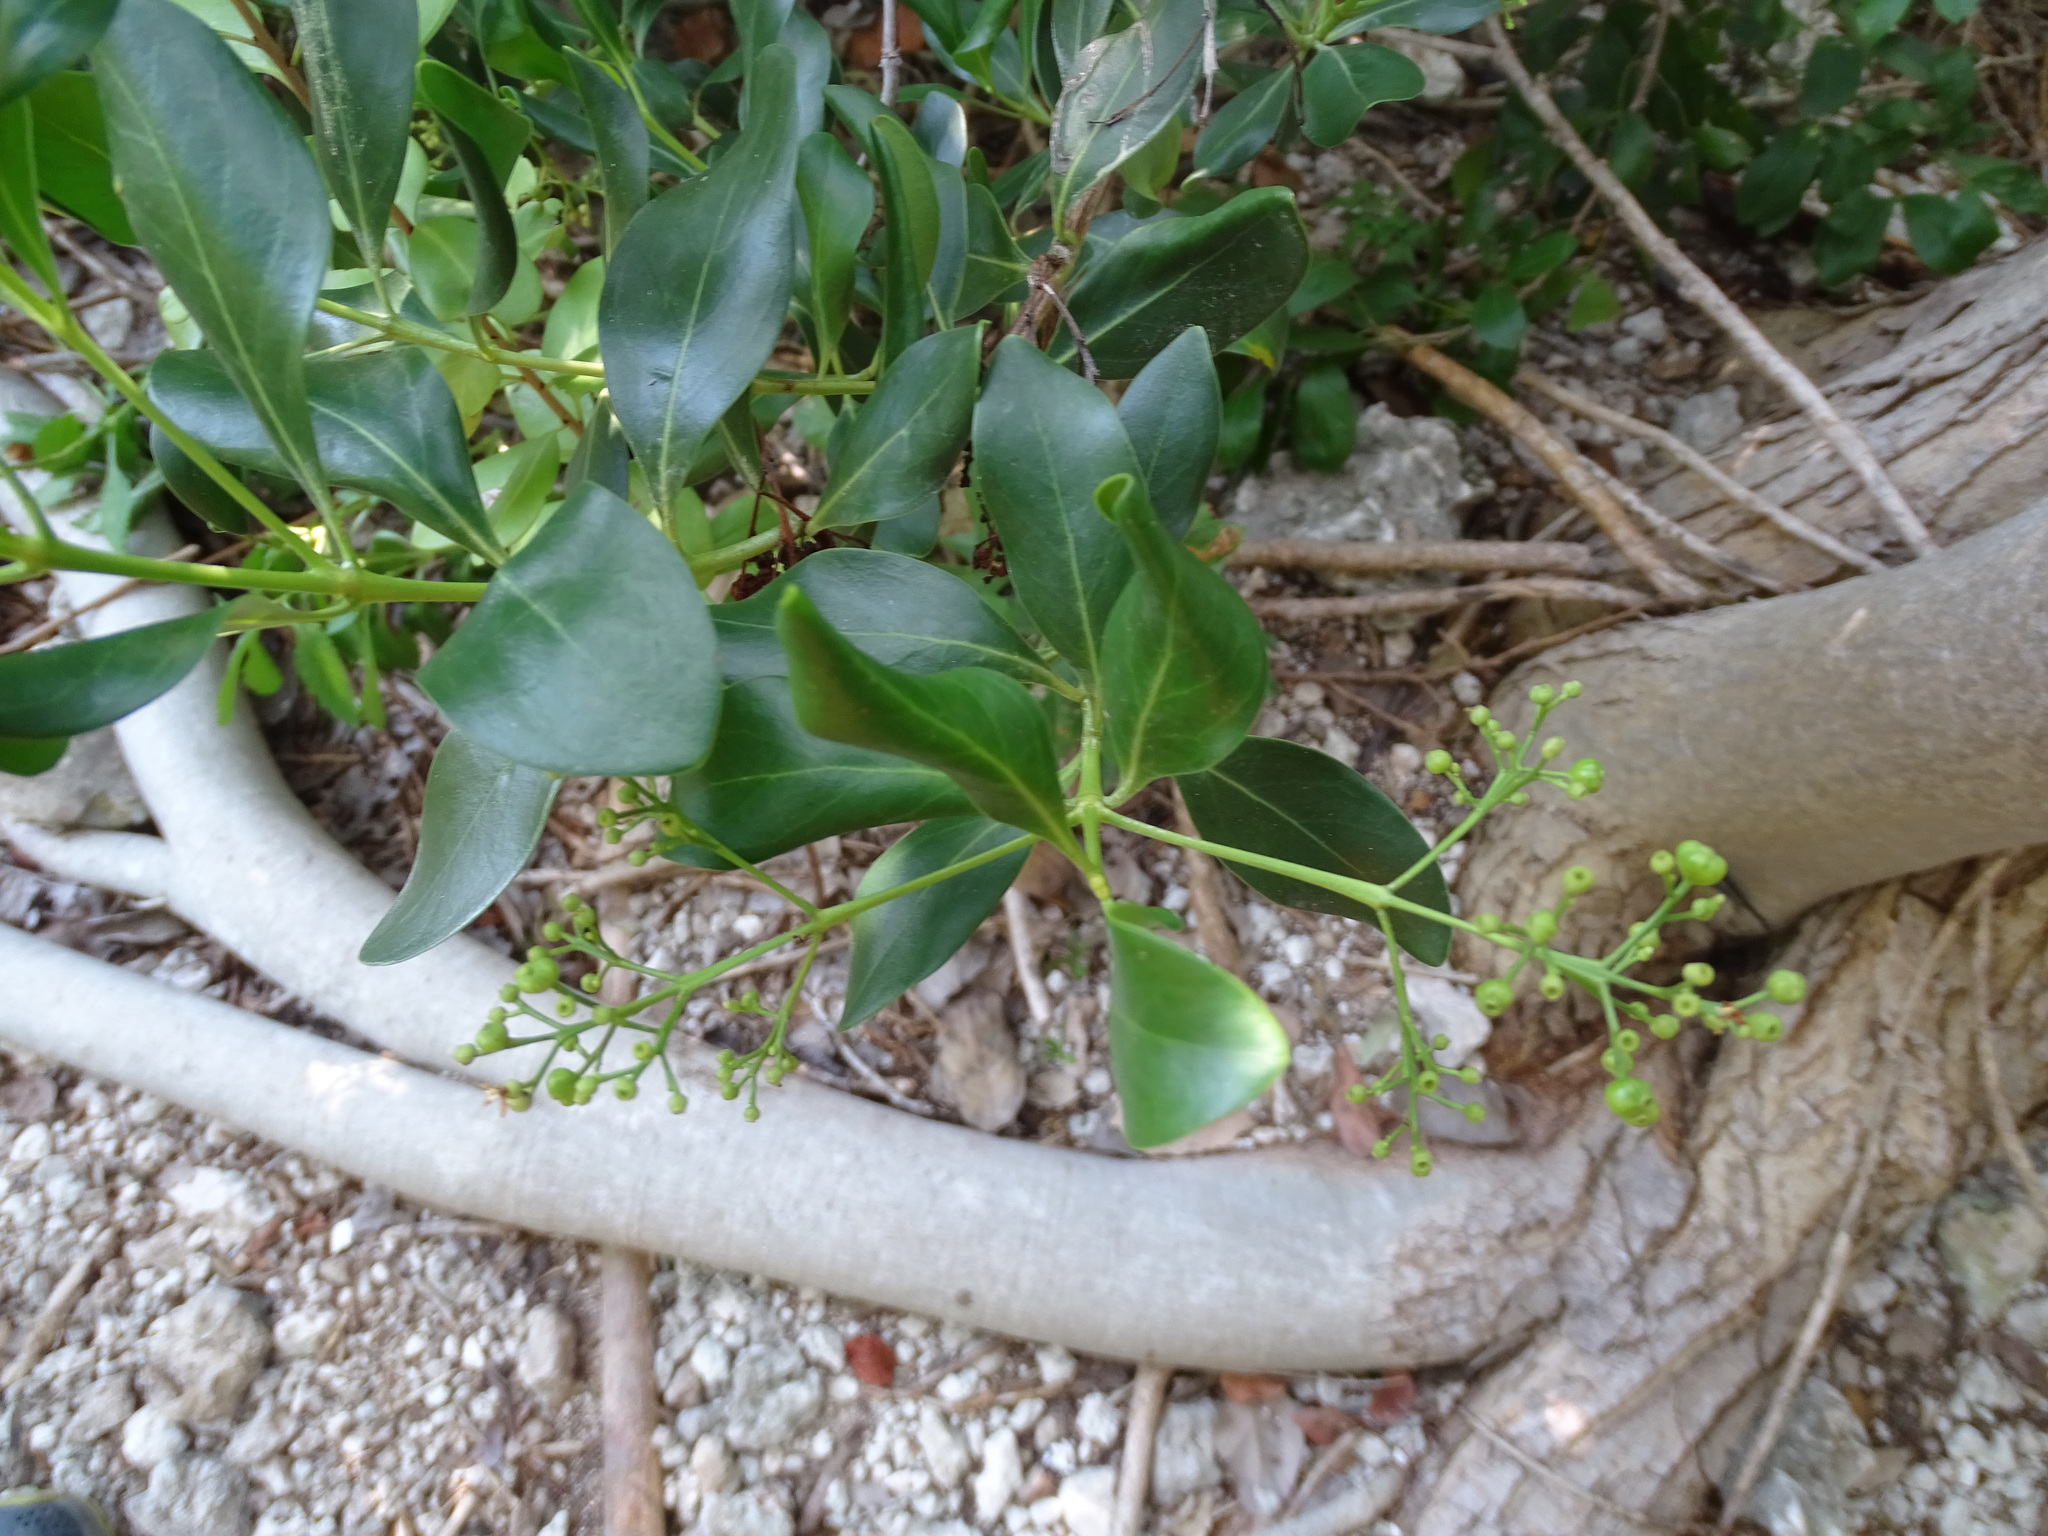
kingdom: Plantae
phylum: Tracheophyta
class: Magnoliopsida
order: Gentianales
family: Rubiaceae
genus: Erithalis
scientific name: Erithalis fruticosa
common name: Candlewood
